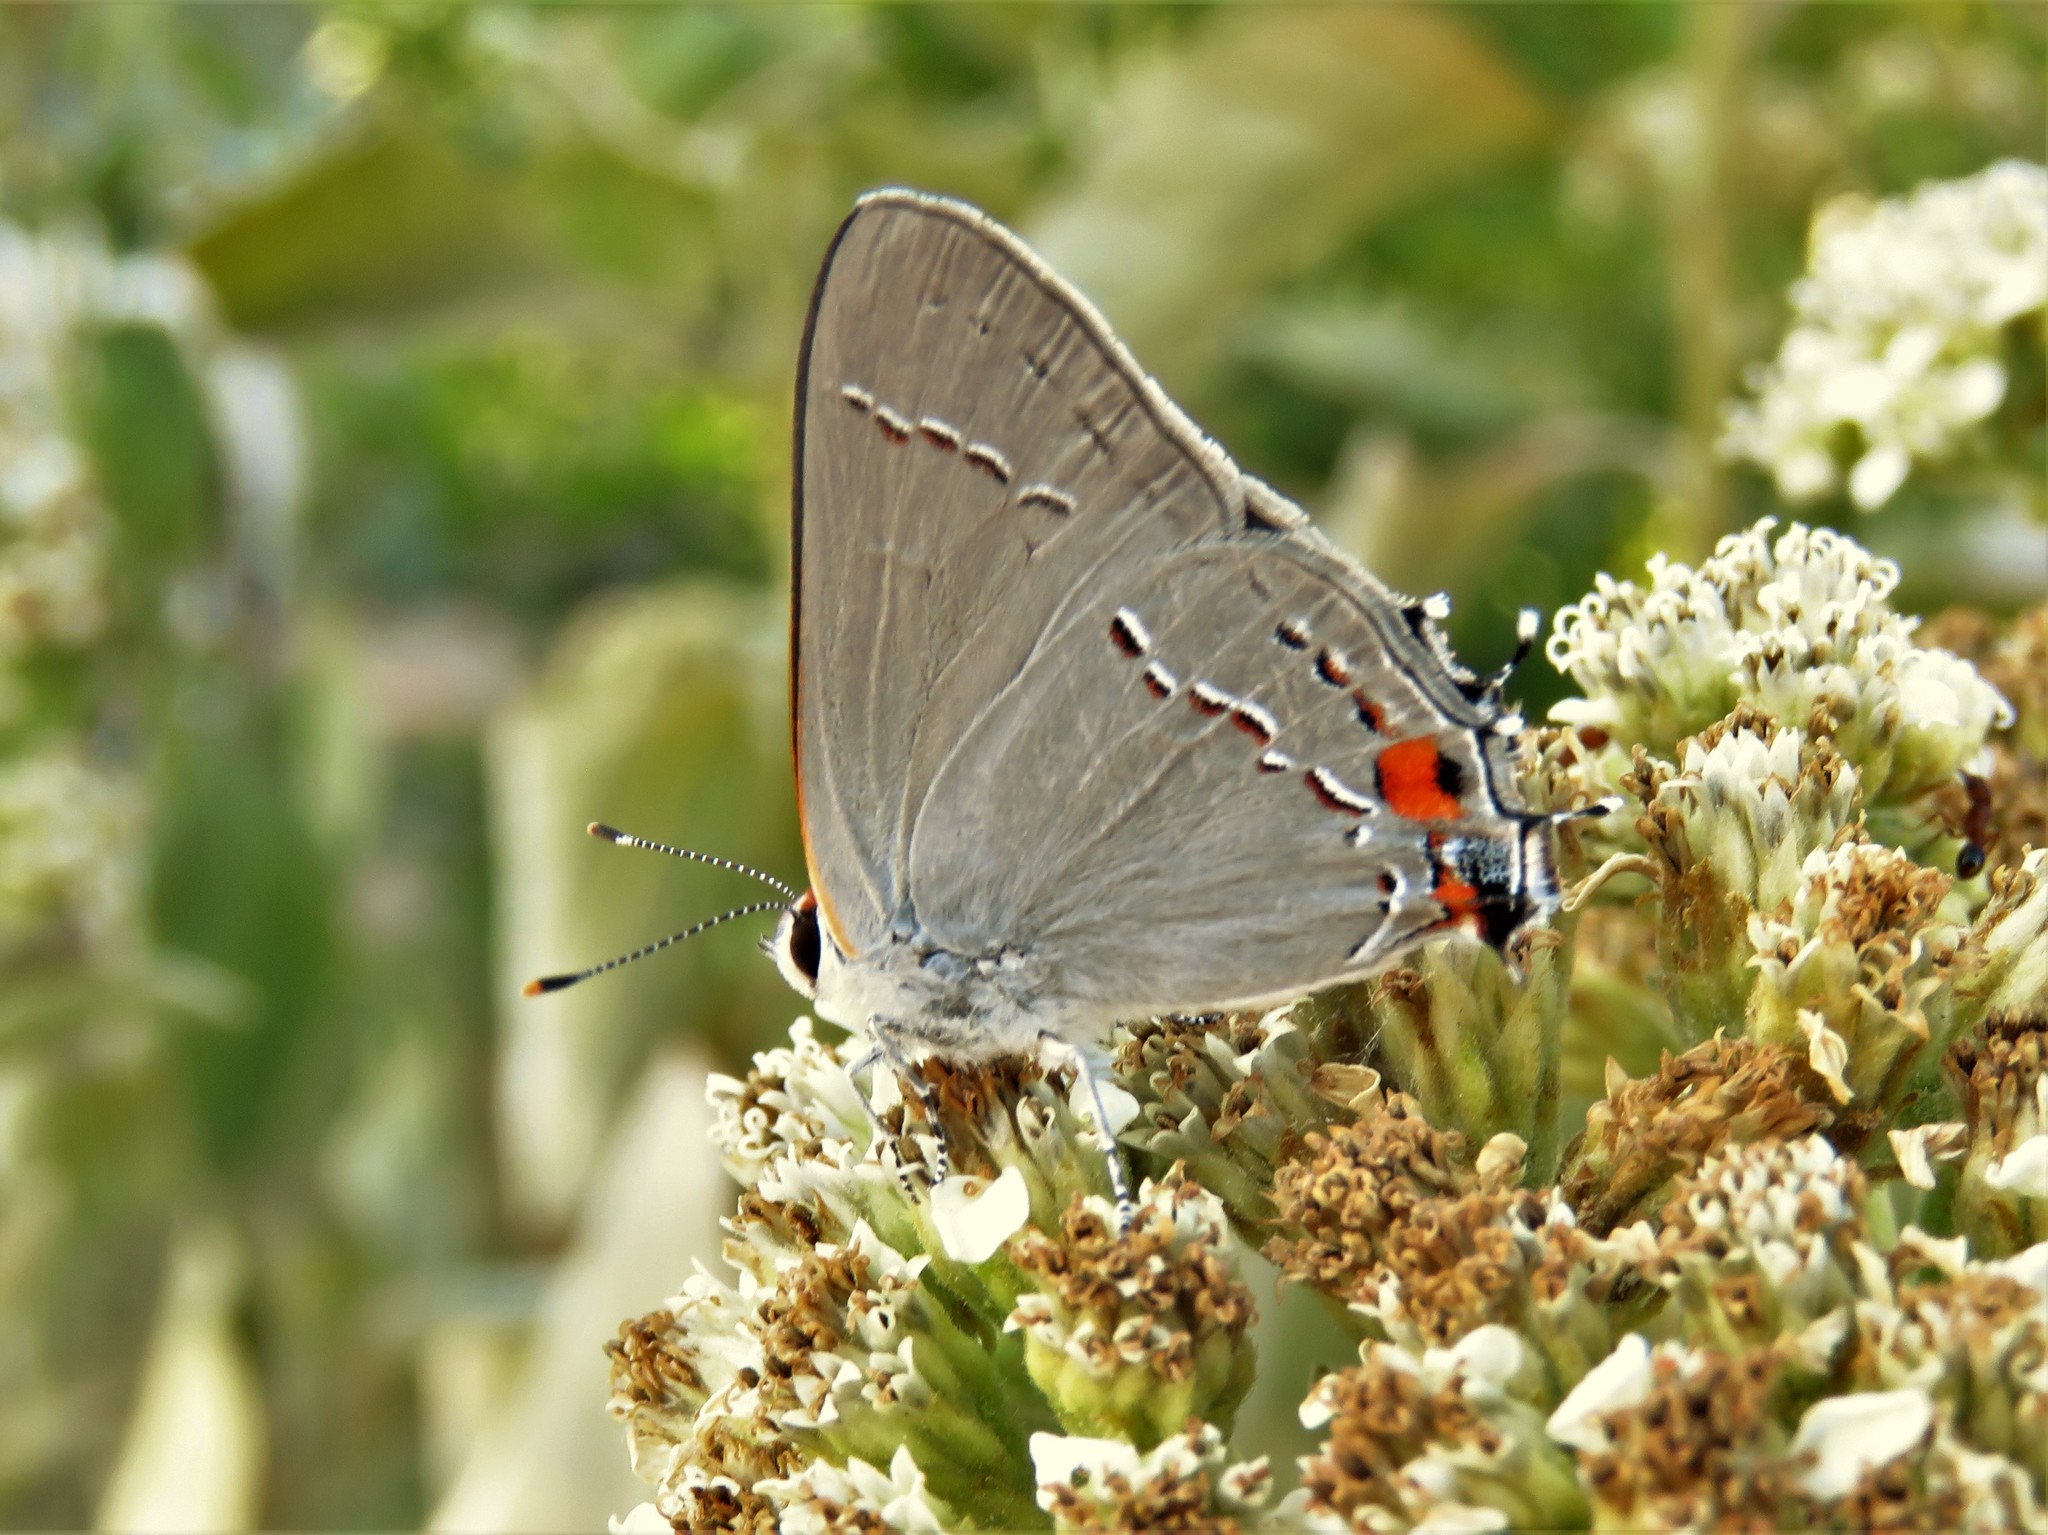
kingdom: Animalia
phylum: Arthropoda
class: Insecta
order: Lepidoptera
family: Lycaenidae
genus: Strymon
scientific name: Strymon melinus
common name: Gray hairstreak
